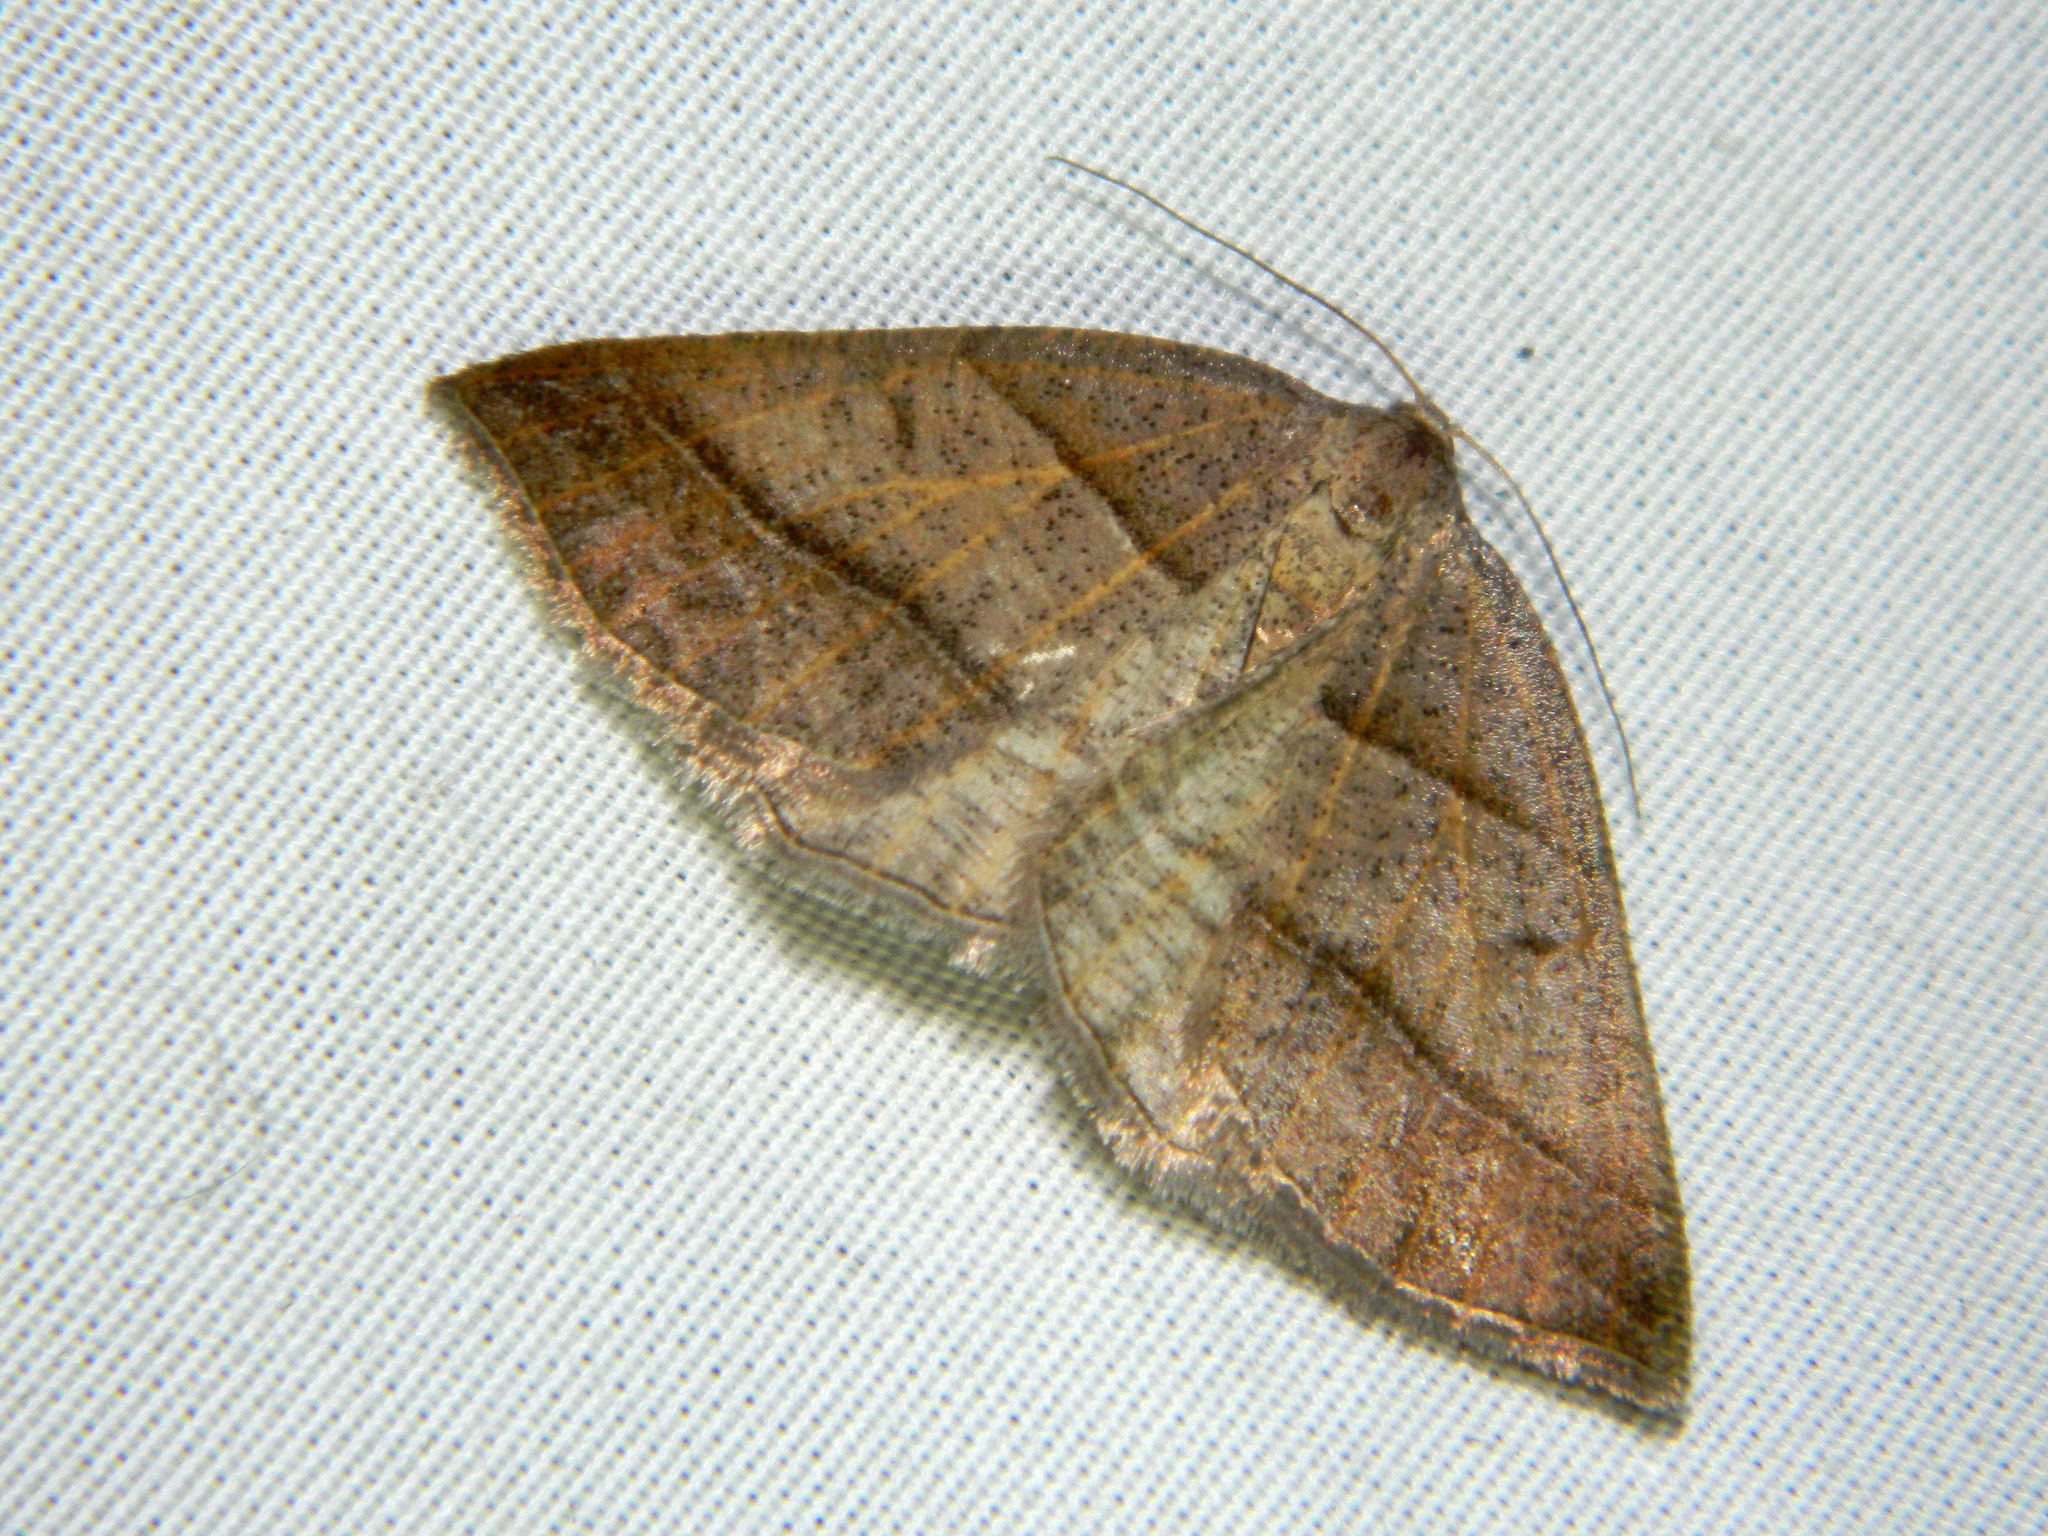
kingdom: Animalia
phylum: Arthropoda
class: Insecta
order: Lepidoptera
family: Pterophoridae
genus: Pterophorus
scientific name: Pterophorus Petrophora subaequaria
